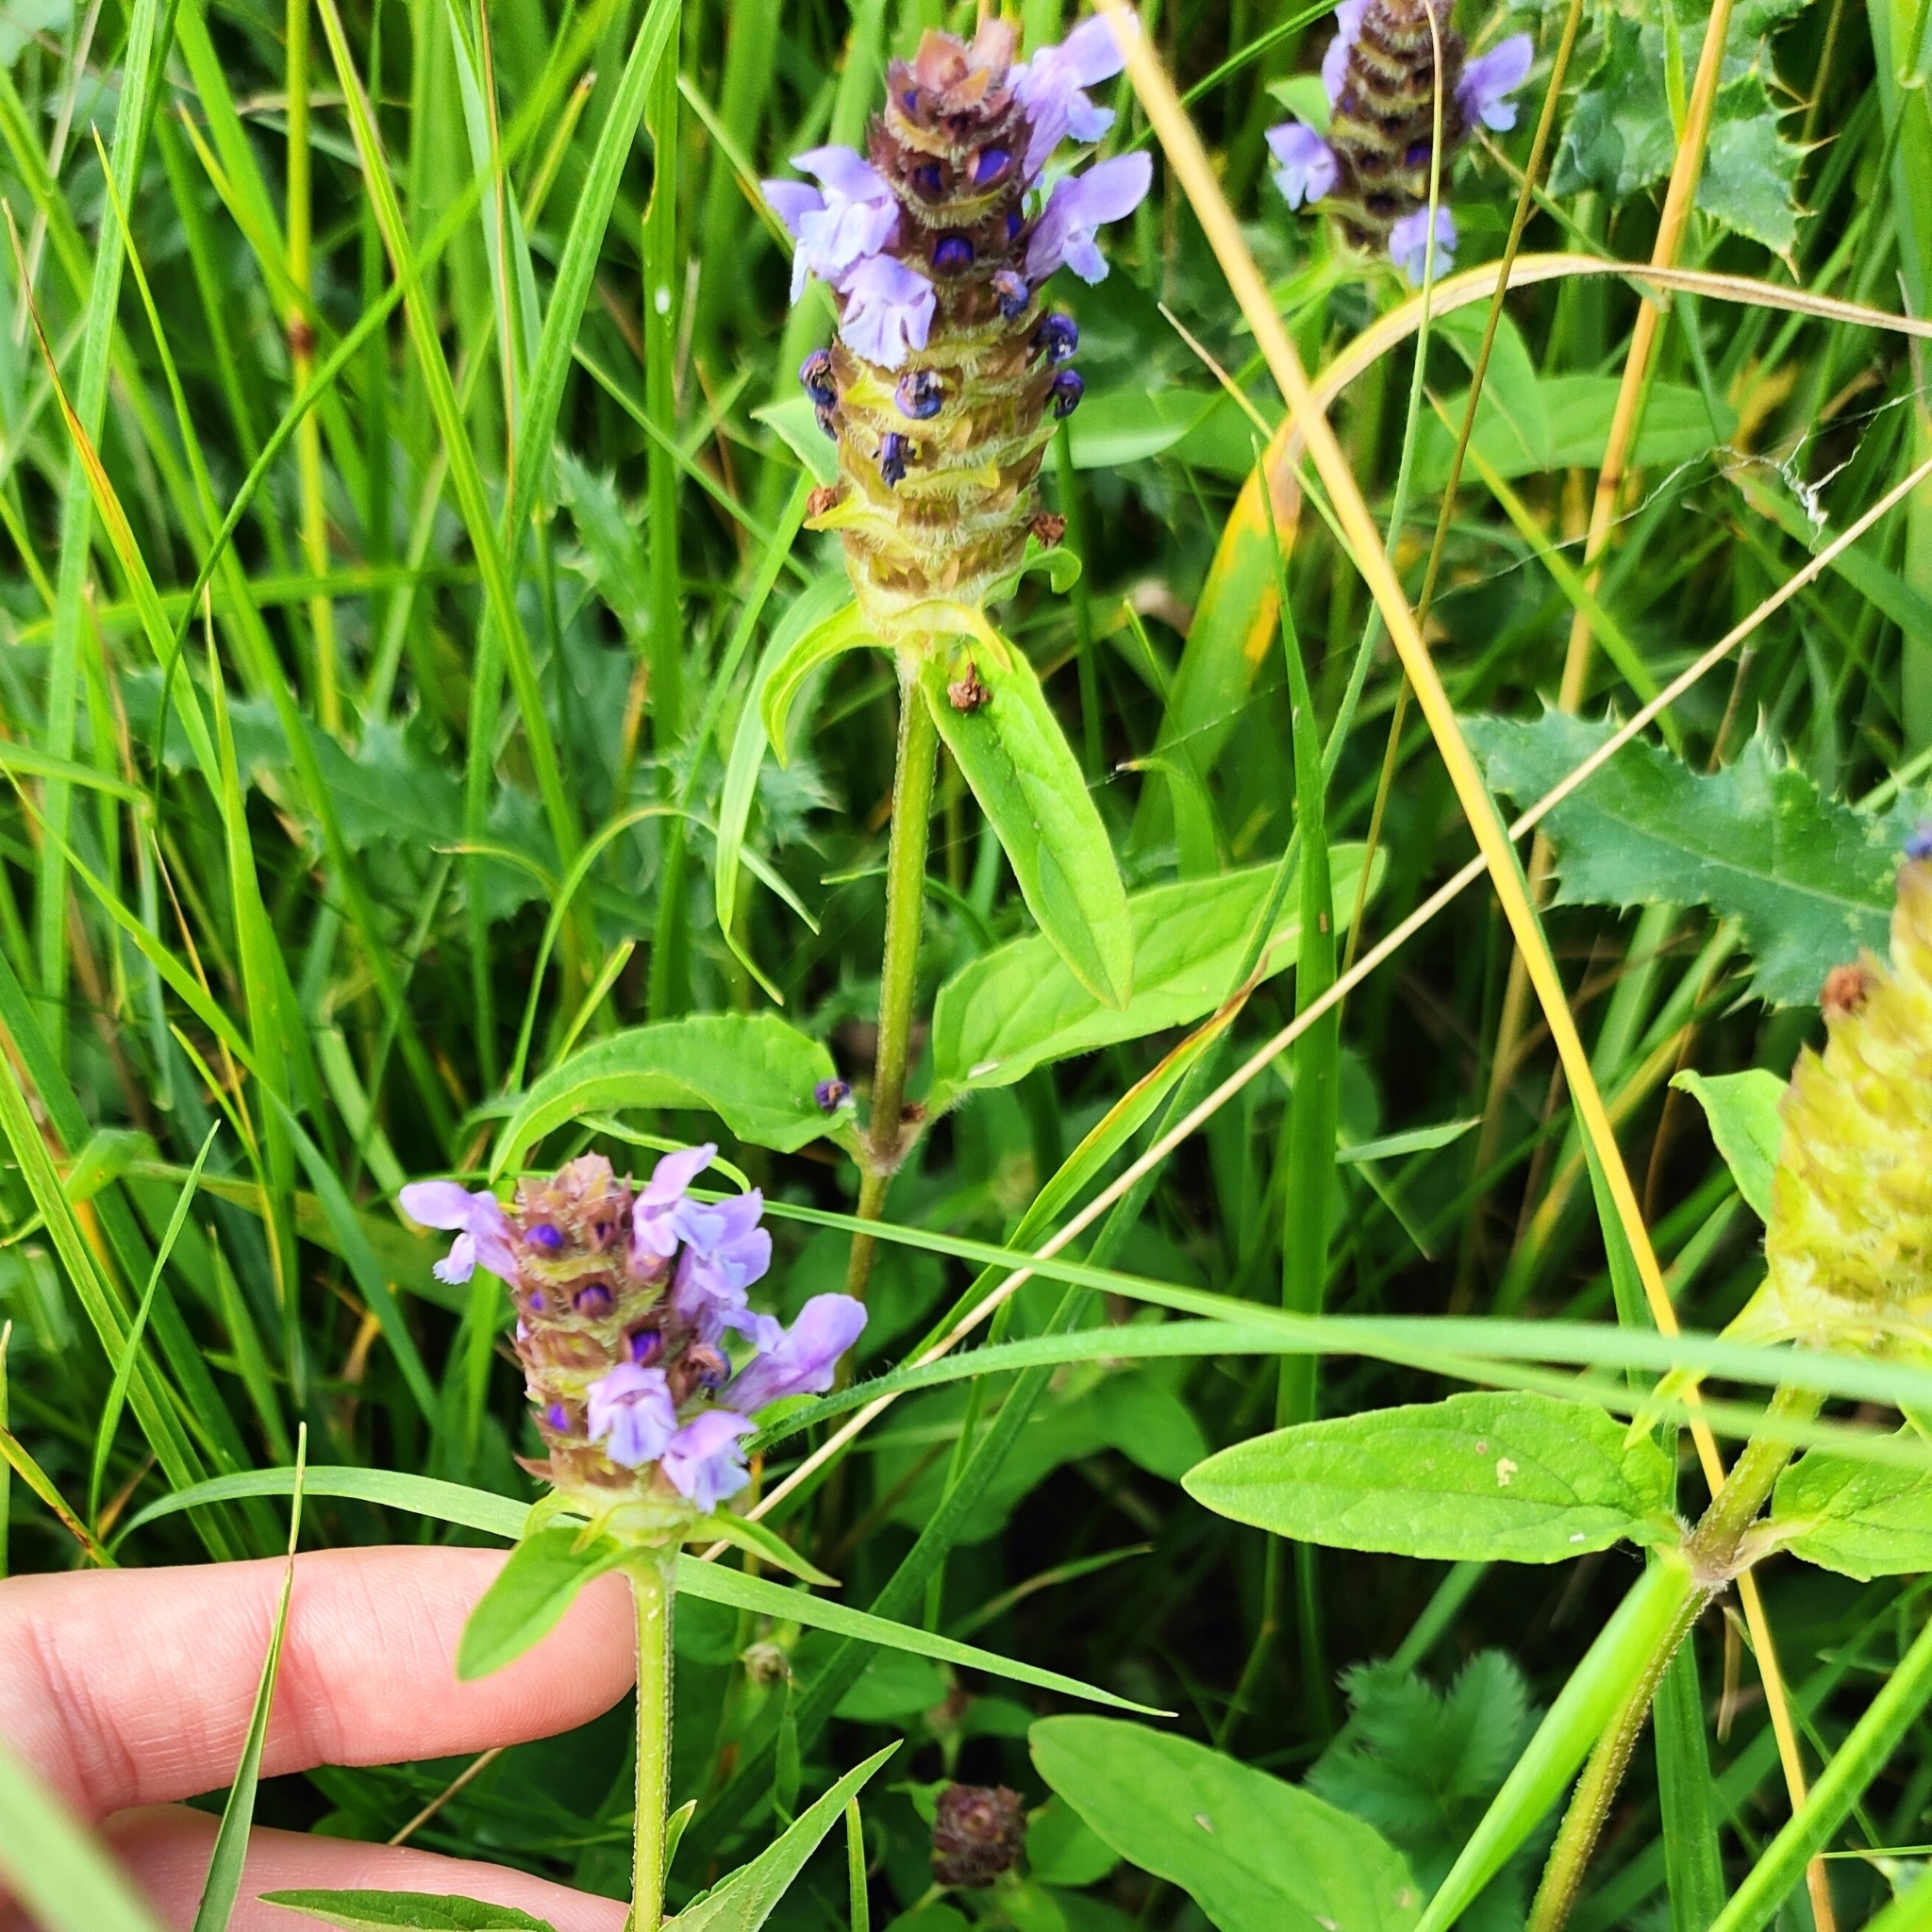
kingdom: Plantae
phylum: Tracheophyta
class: Magnoliopsida
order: Lamiales
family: Lamiaceae
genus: Prunella
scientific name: Prunella vulgaris
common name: Heal-all
